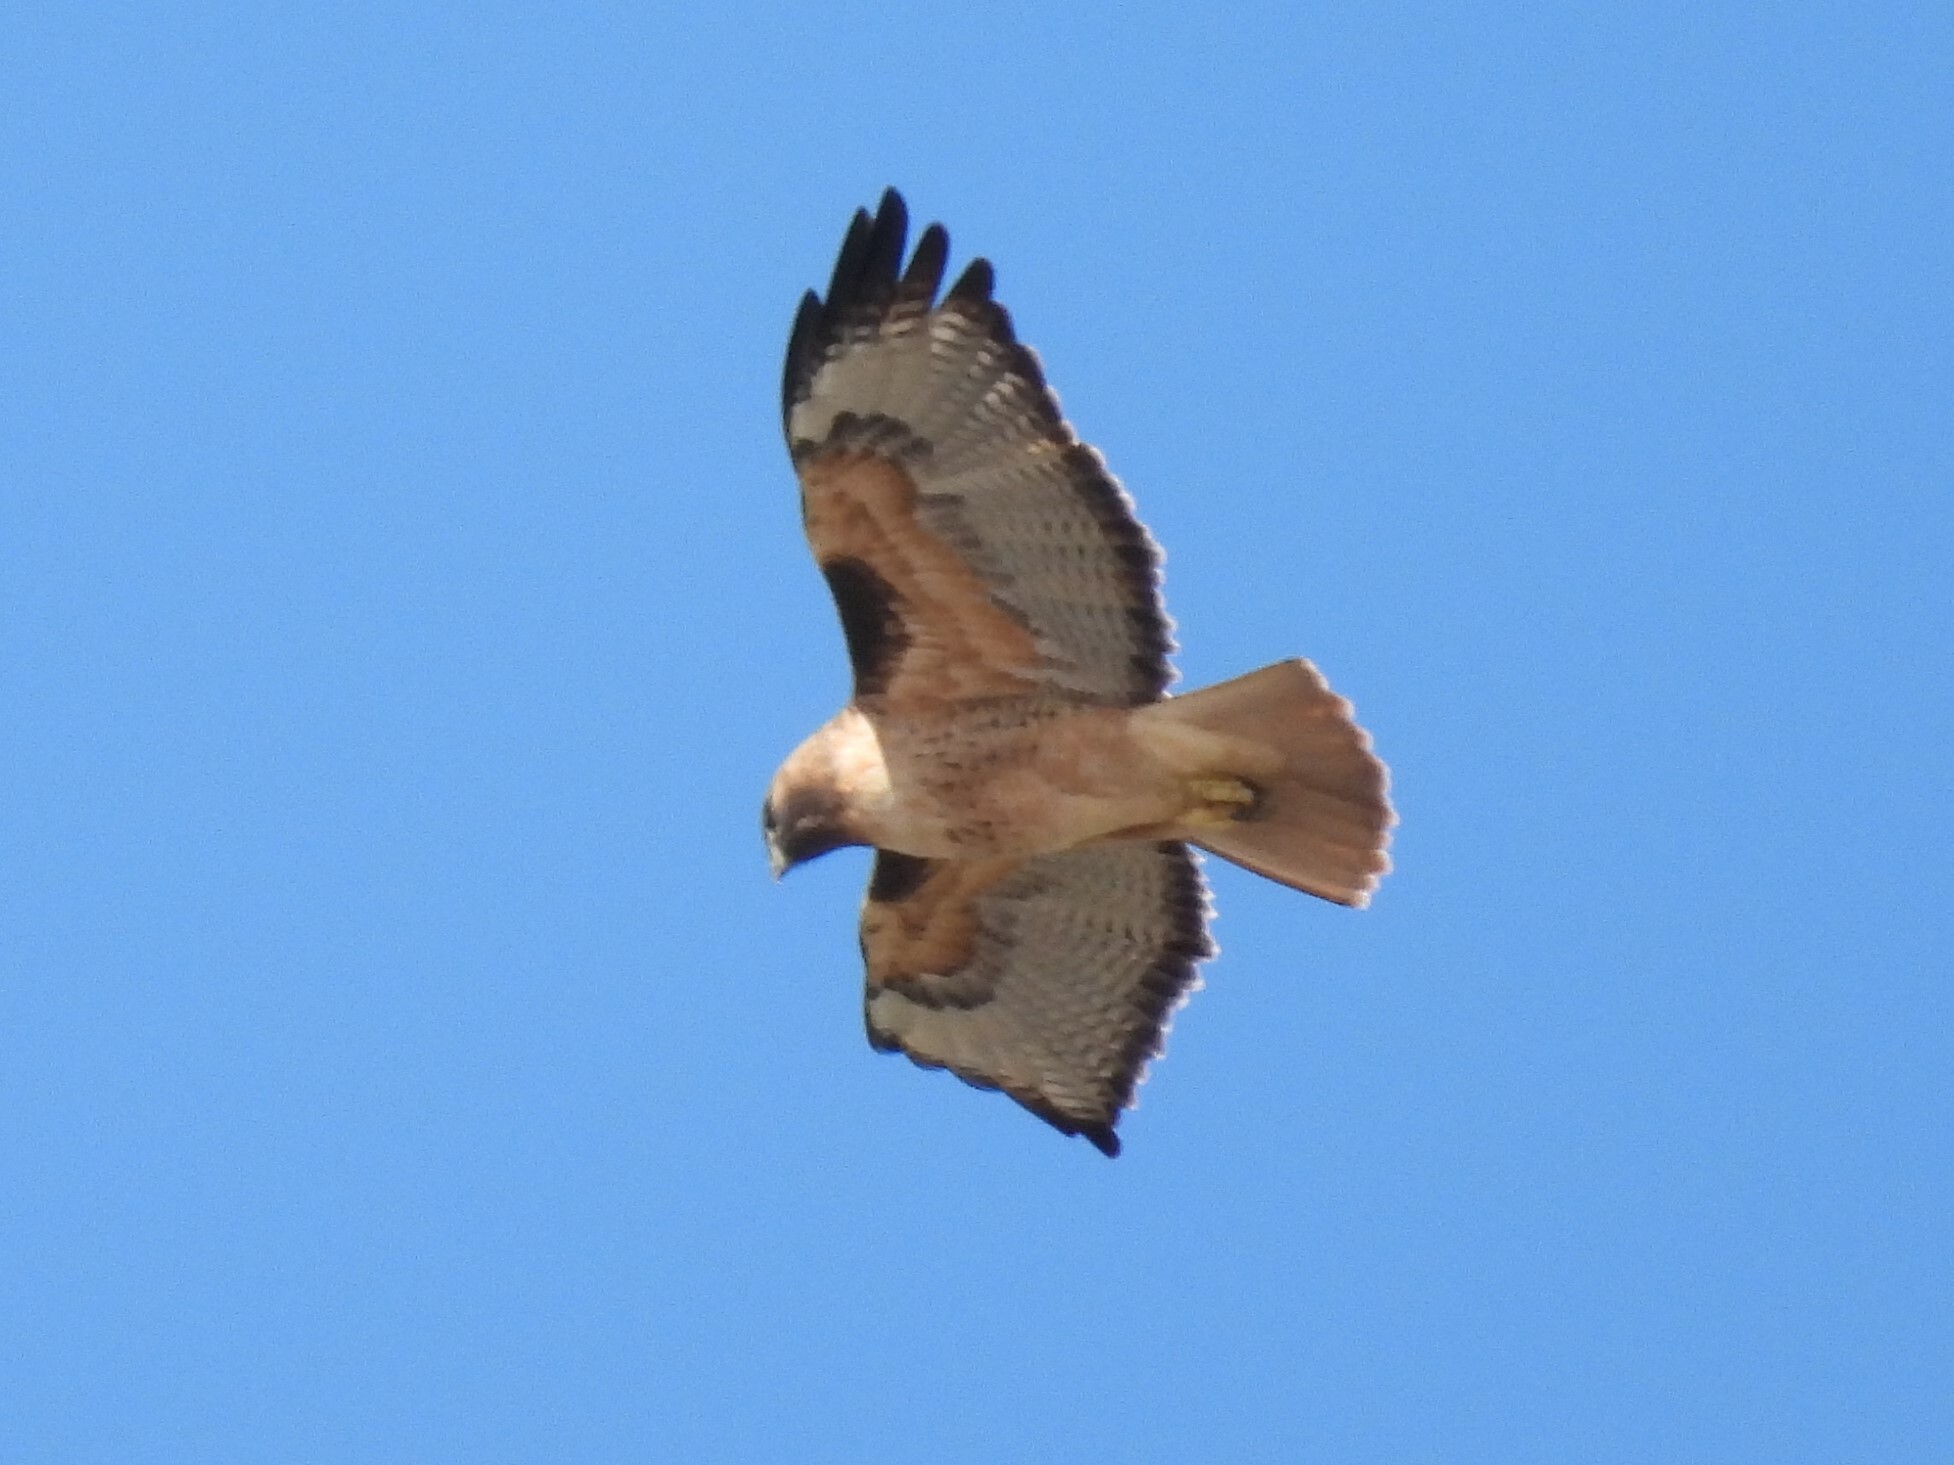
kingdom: Animalia
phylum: Chordata
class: Aves
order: Accipitriformes
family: Accipitridae
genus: Buteo
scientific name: Buteo jamaicensis
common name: Red-tailed hawk
